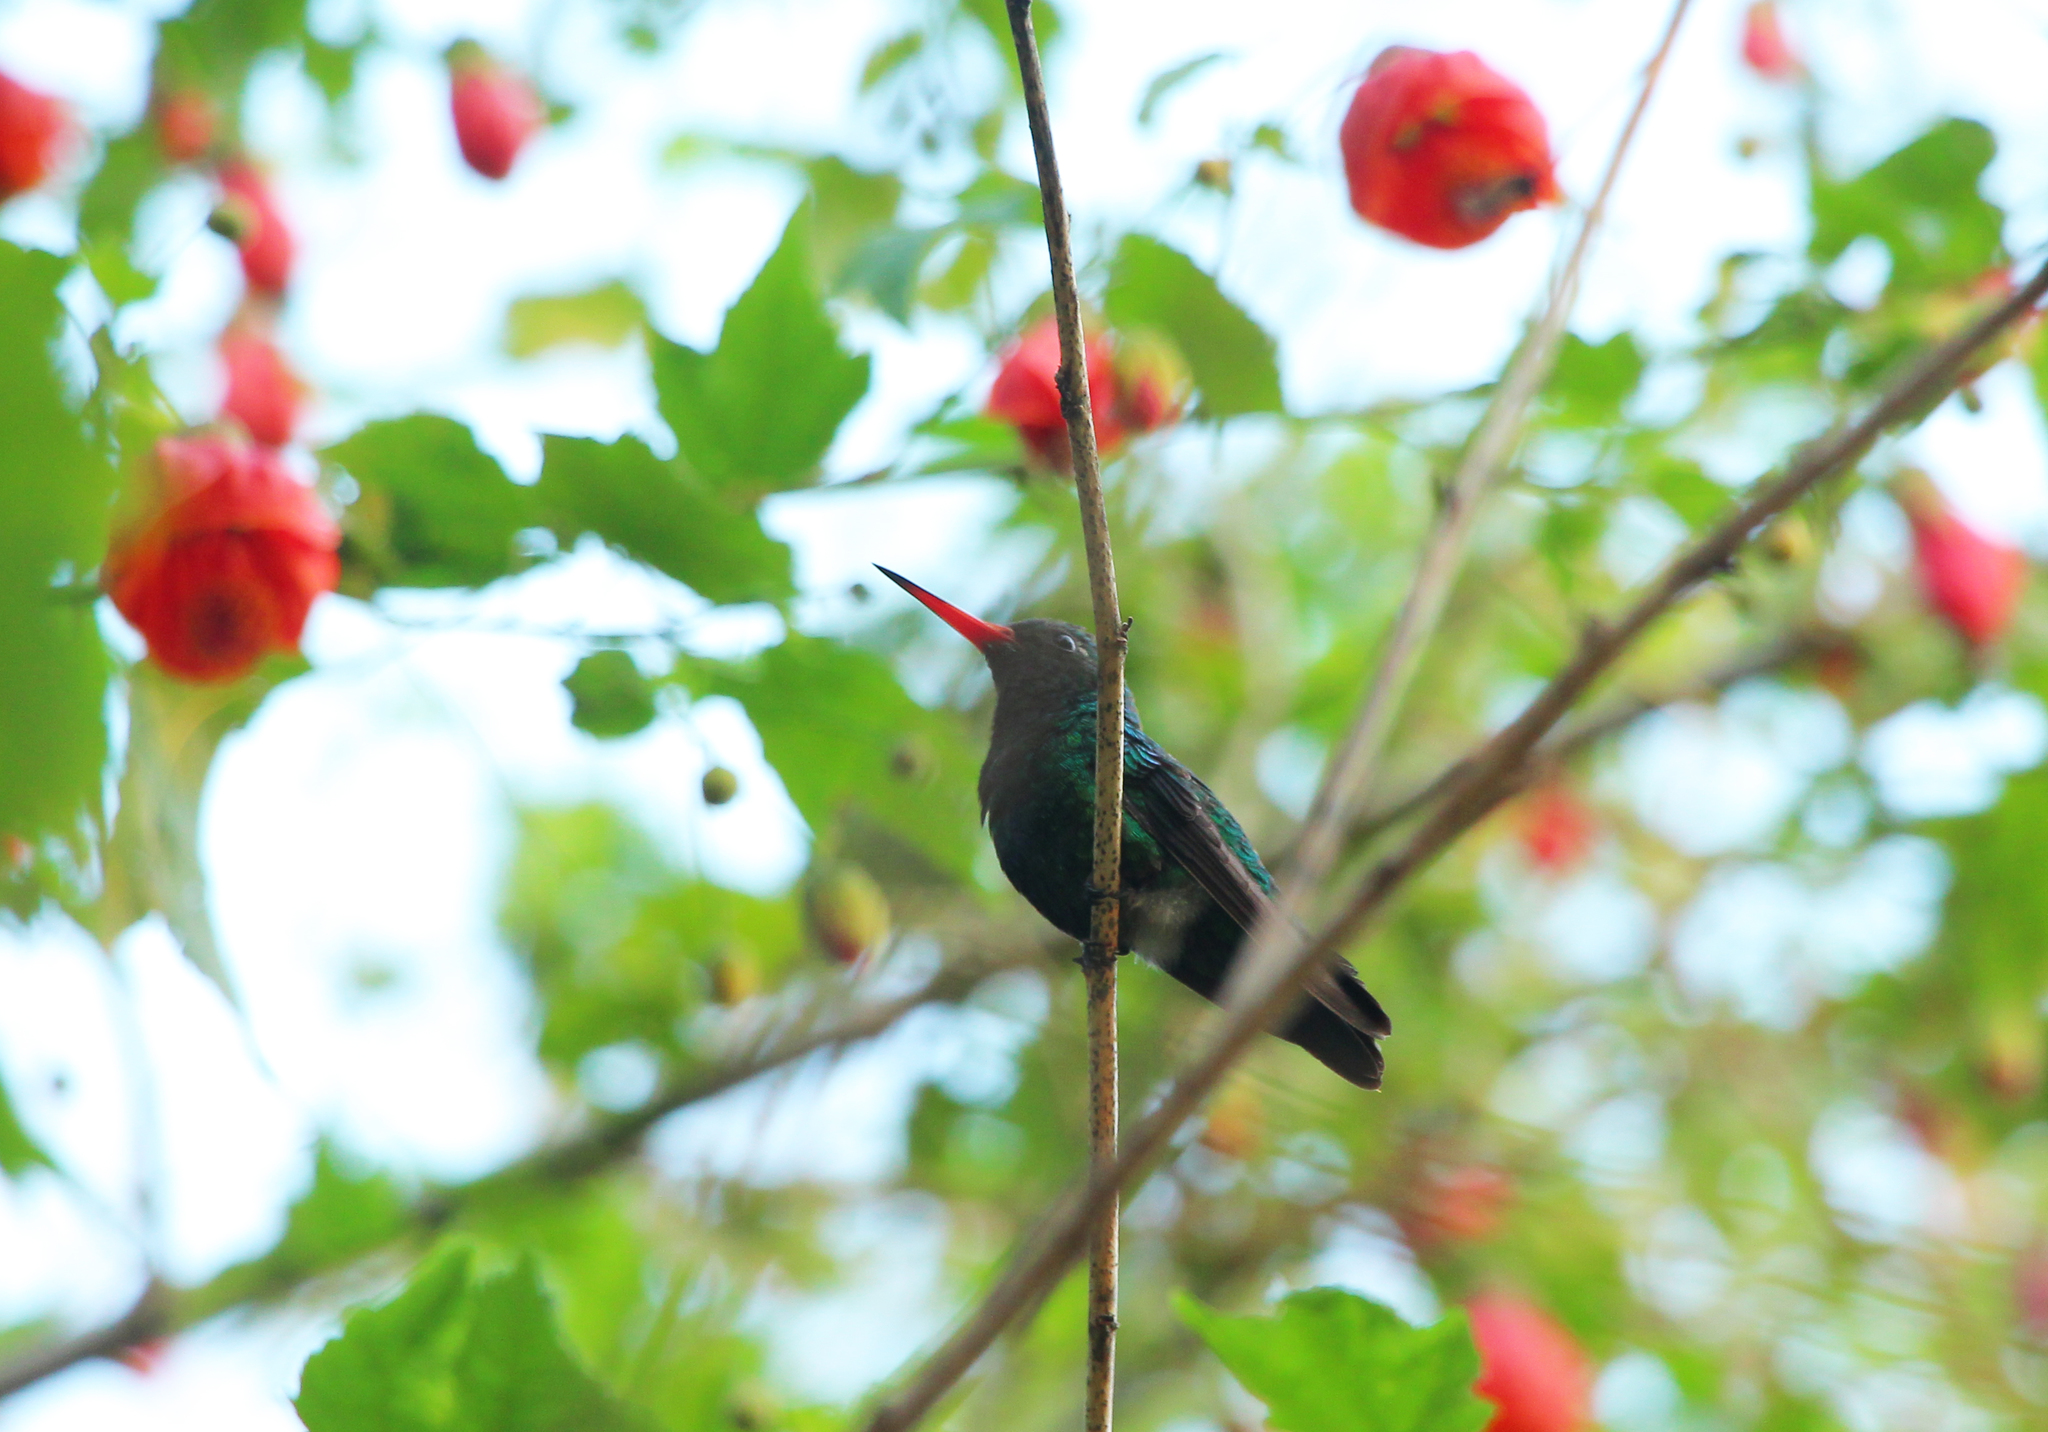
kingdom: Animalia
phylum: Chordata
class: Aves
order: Apodiformes
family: Trochilidae
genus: Chlorostilbon
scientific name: Chlorostilbon lucidus
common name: Glittering-bellied emerald
